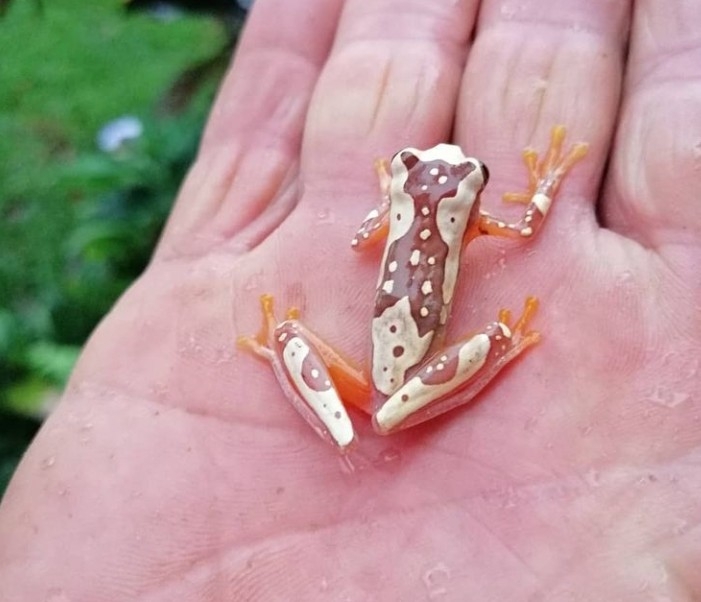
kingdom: Animalia
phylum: Chordata
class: Amphibia
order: Anura
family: Hylidae
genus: Dendropsophus
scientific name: Dendropsophus ebraccatus
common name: Hourglass treefrog
